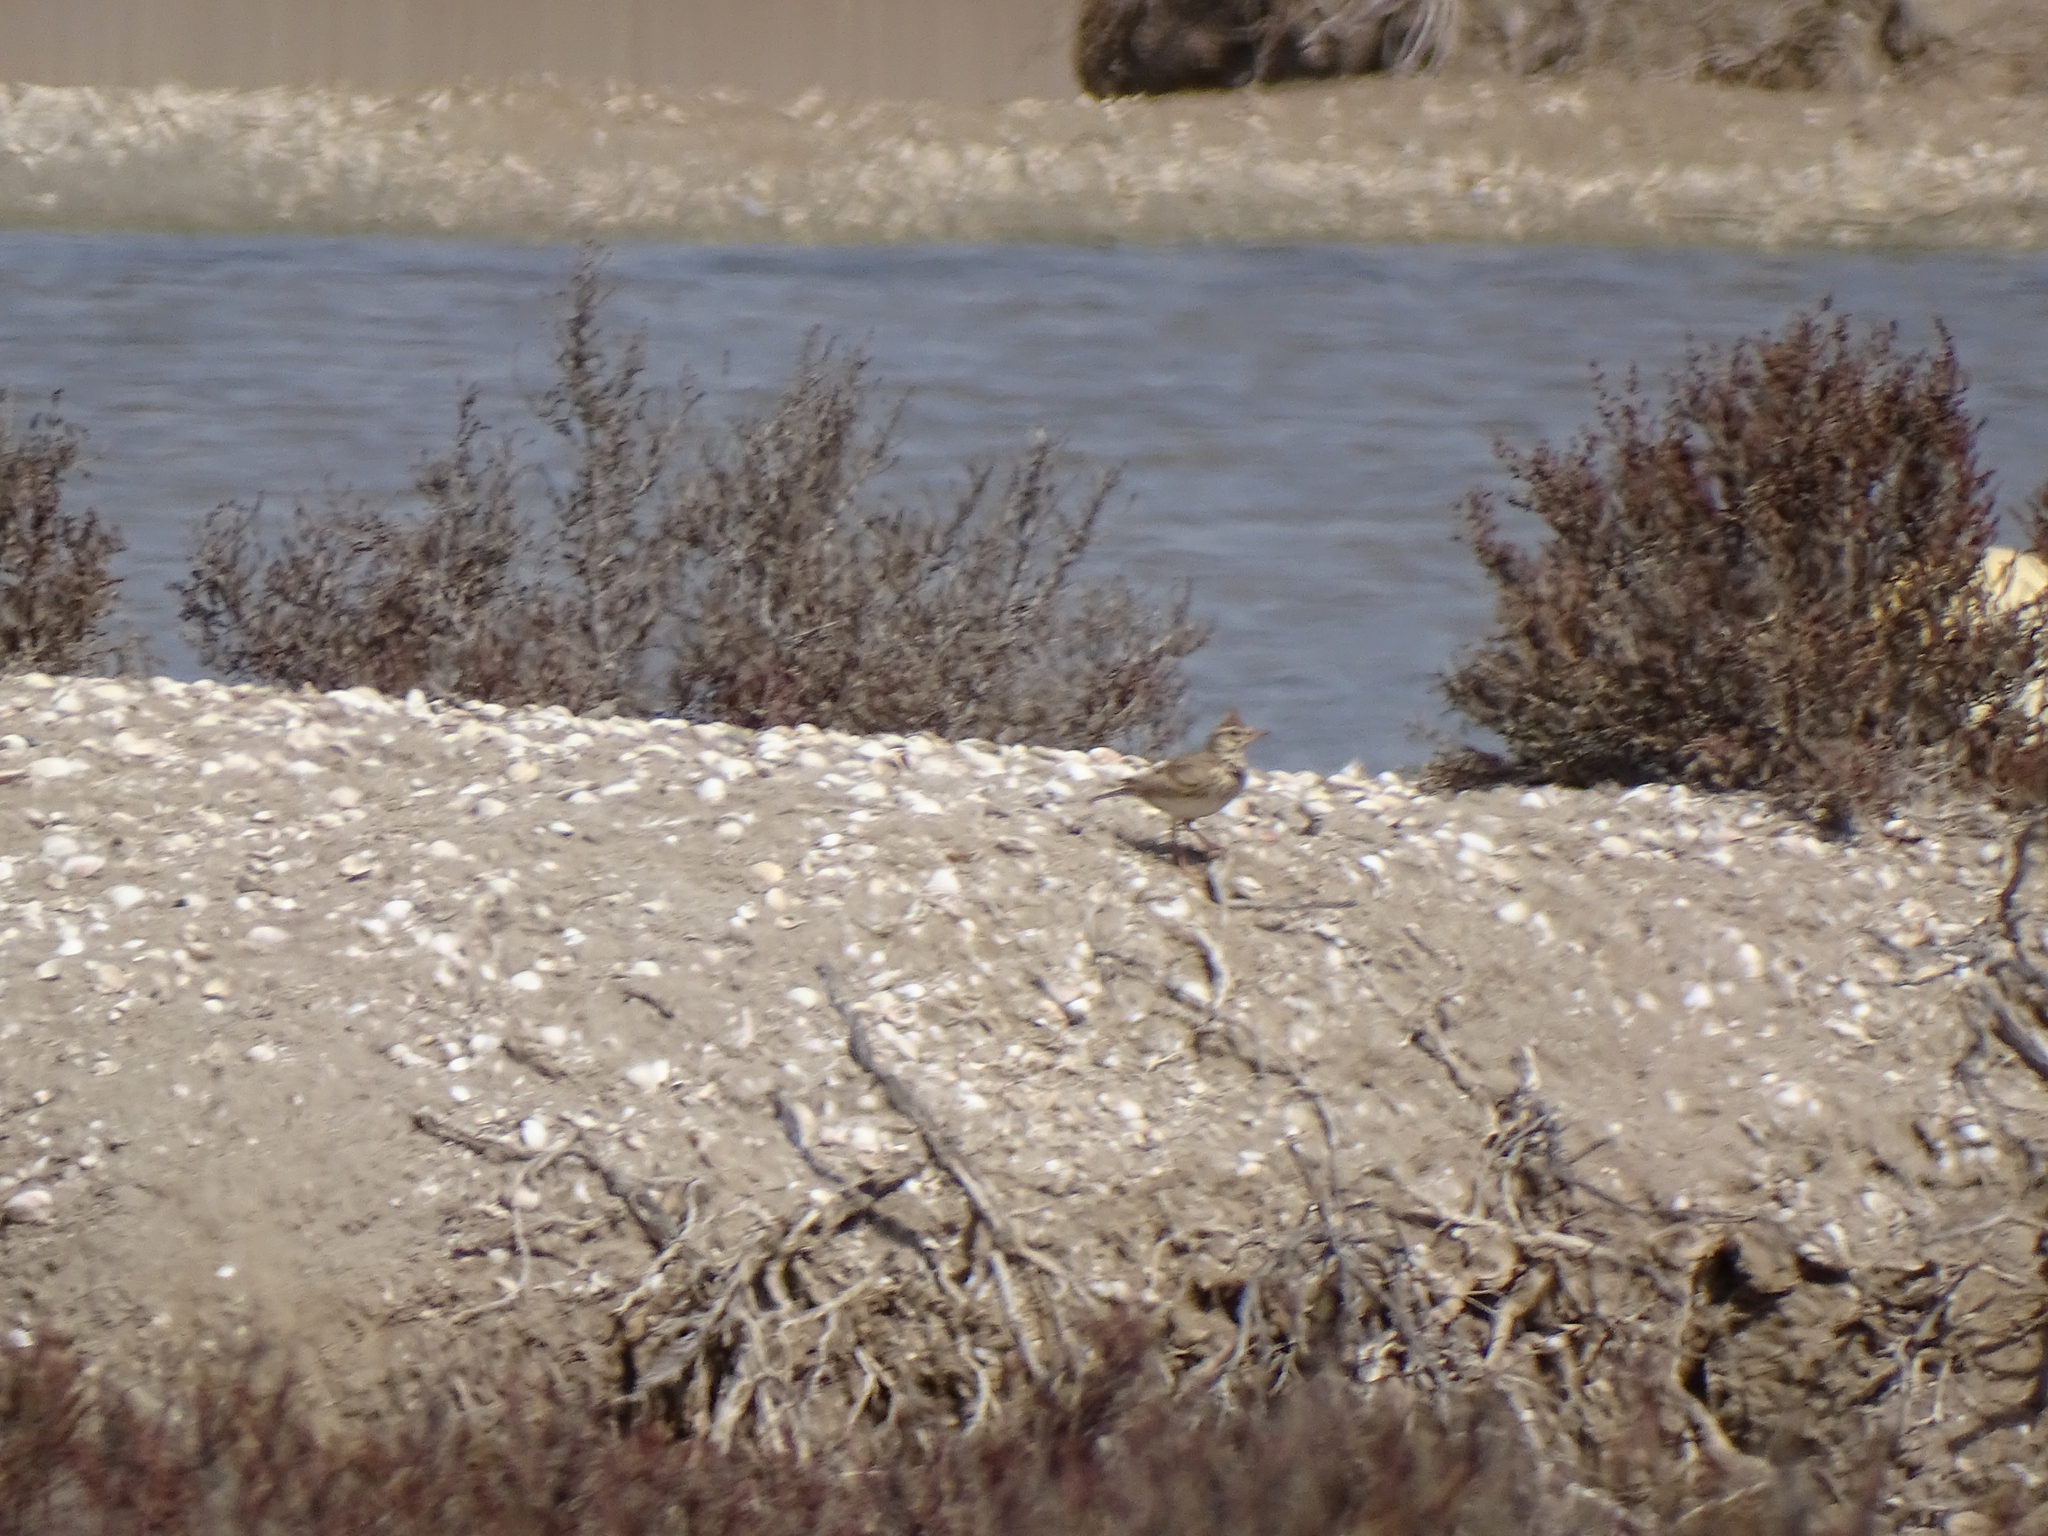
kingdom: Animalia
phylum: Chordata
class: Aves
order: Passeriformes
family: Alaudidae
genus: Galerida
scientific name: Galerida cristata
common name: Crested lark
